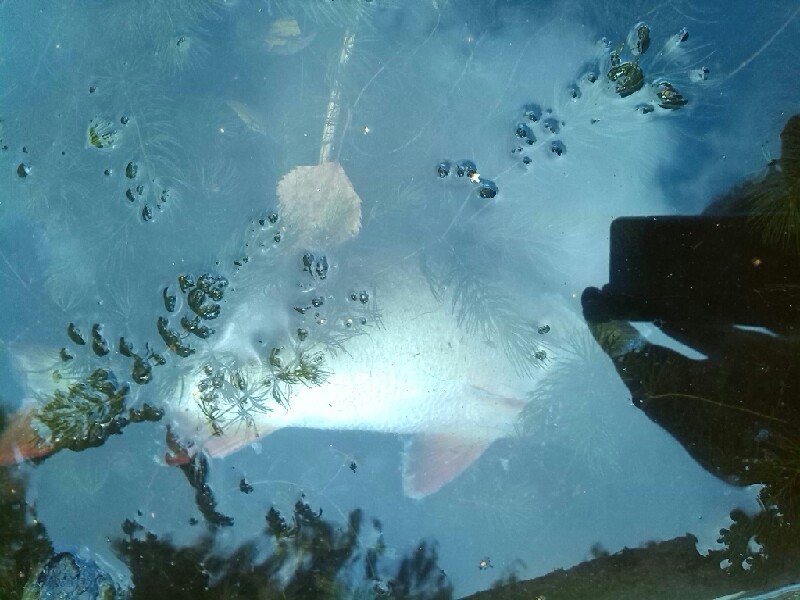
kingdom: Animalia
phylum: Chordata
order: Perciformes
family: Percidae
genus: Perca
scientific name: Perca fluviatilis
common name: Perch
